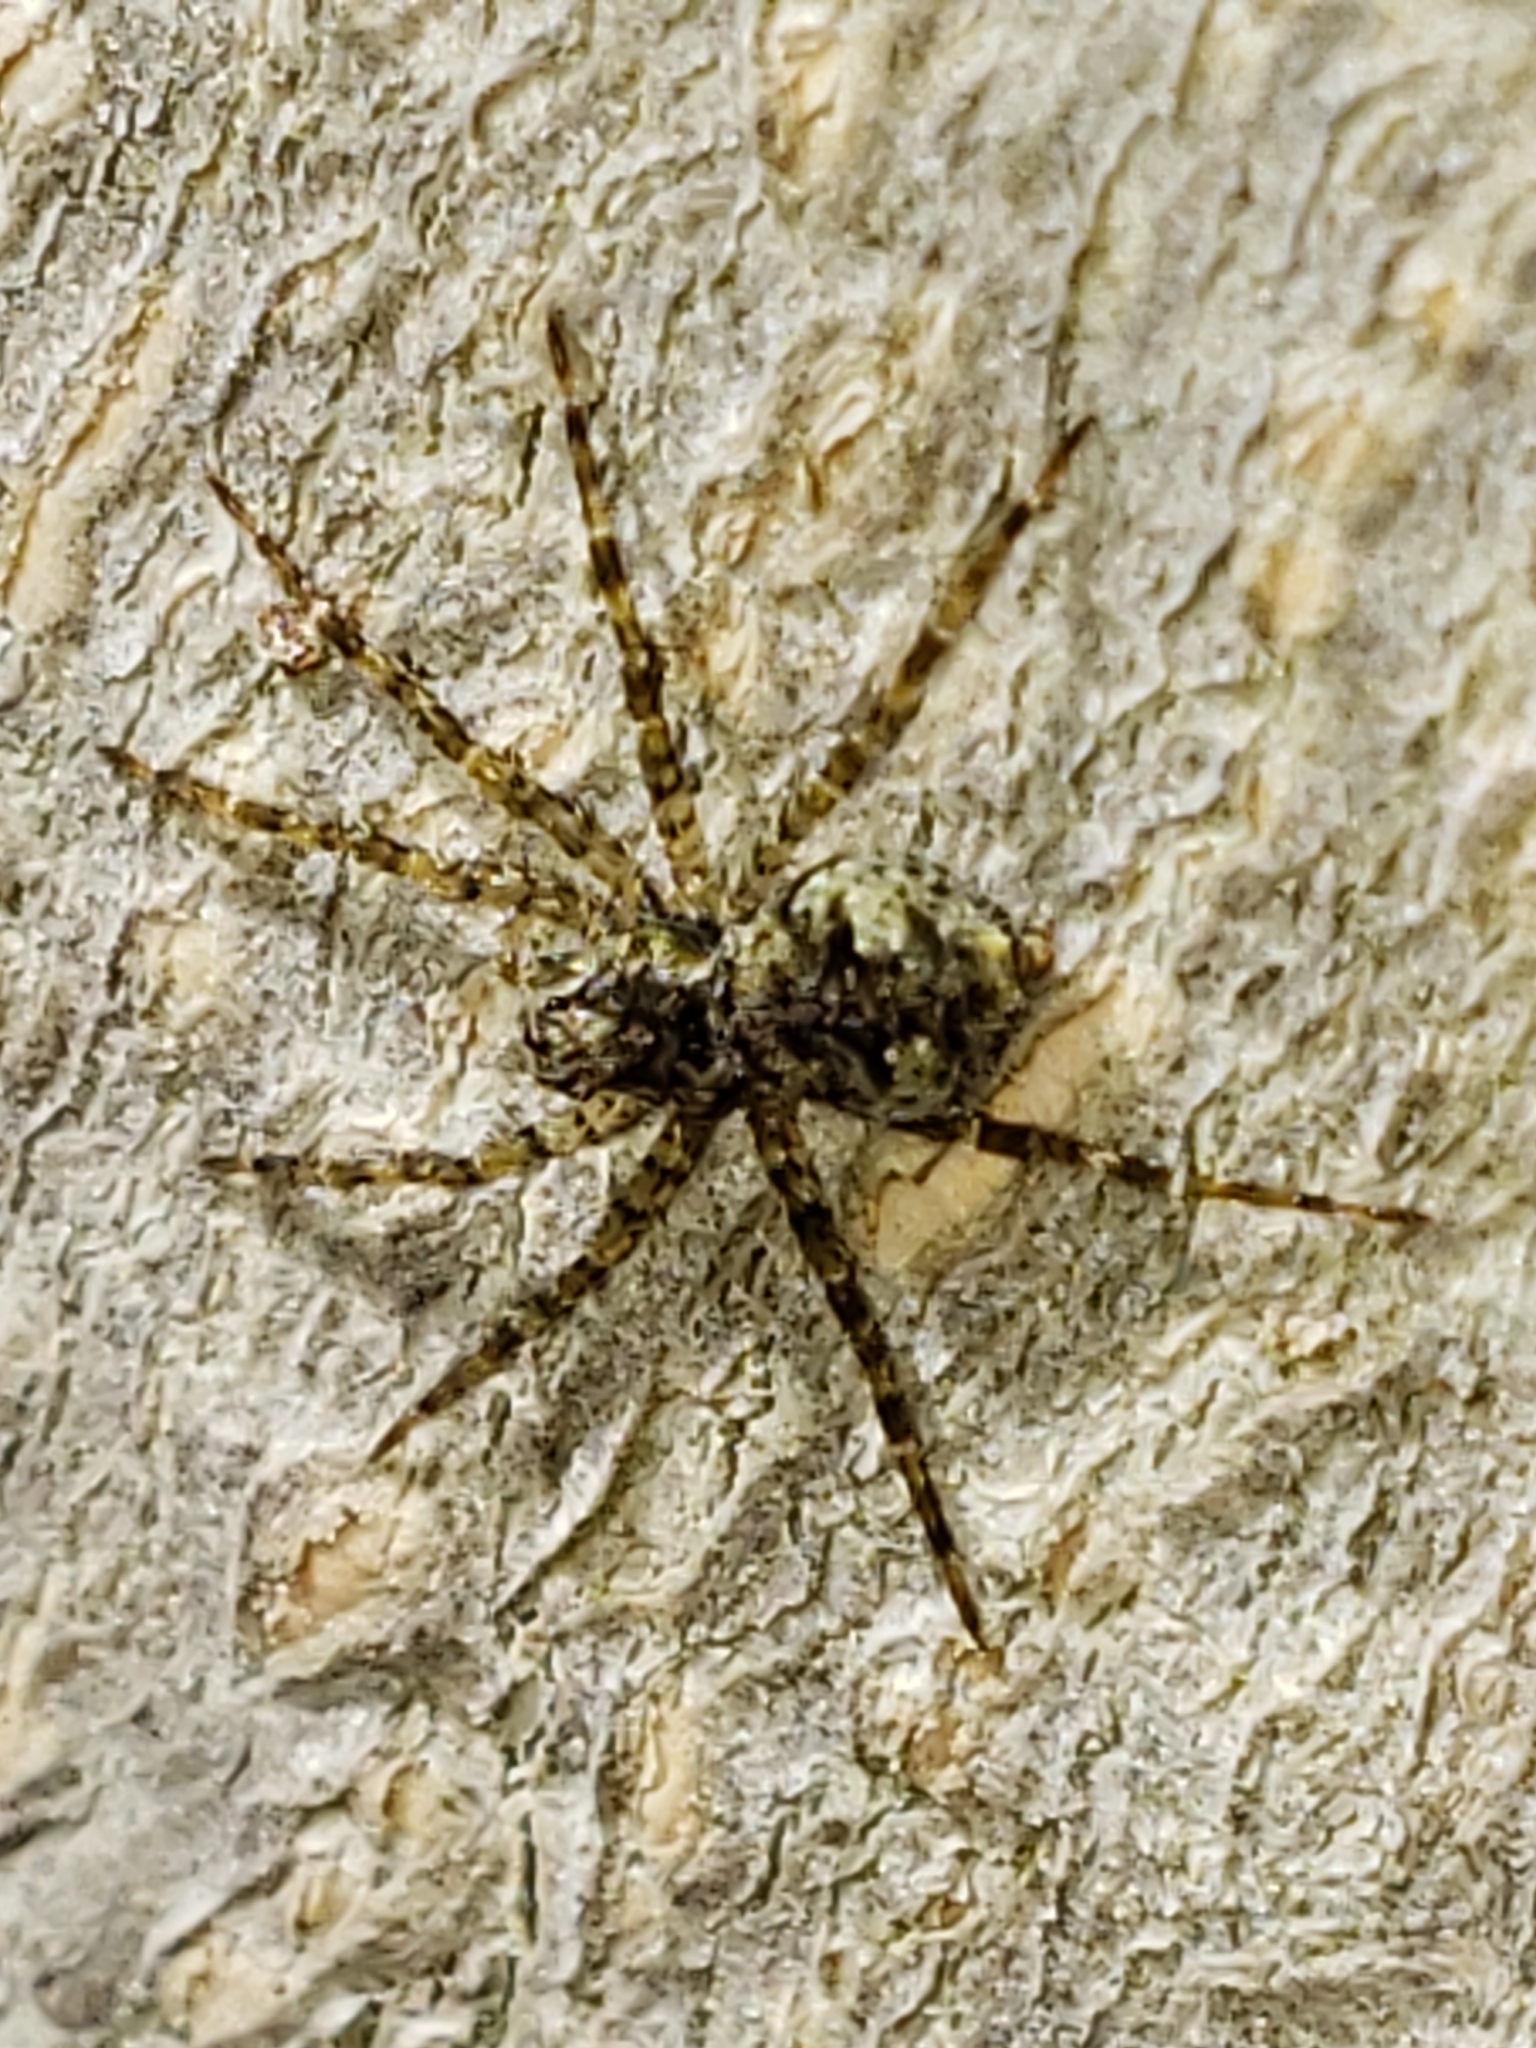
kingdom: Animalia
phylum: Arthropoda
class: Arachnida
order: Araneae
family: Pisauridae
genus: Dolomedes
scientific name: Dolomedes albineus
